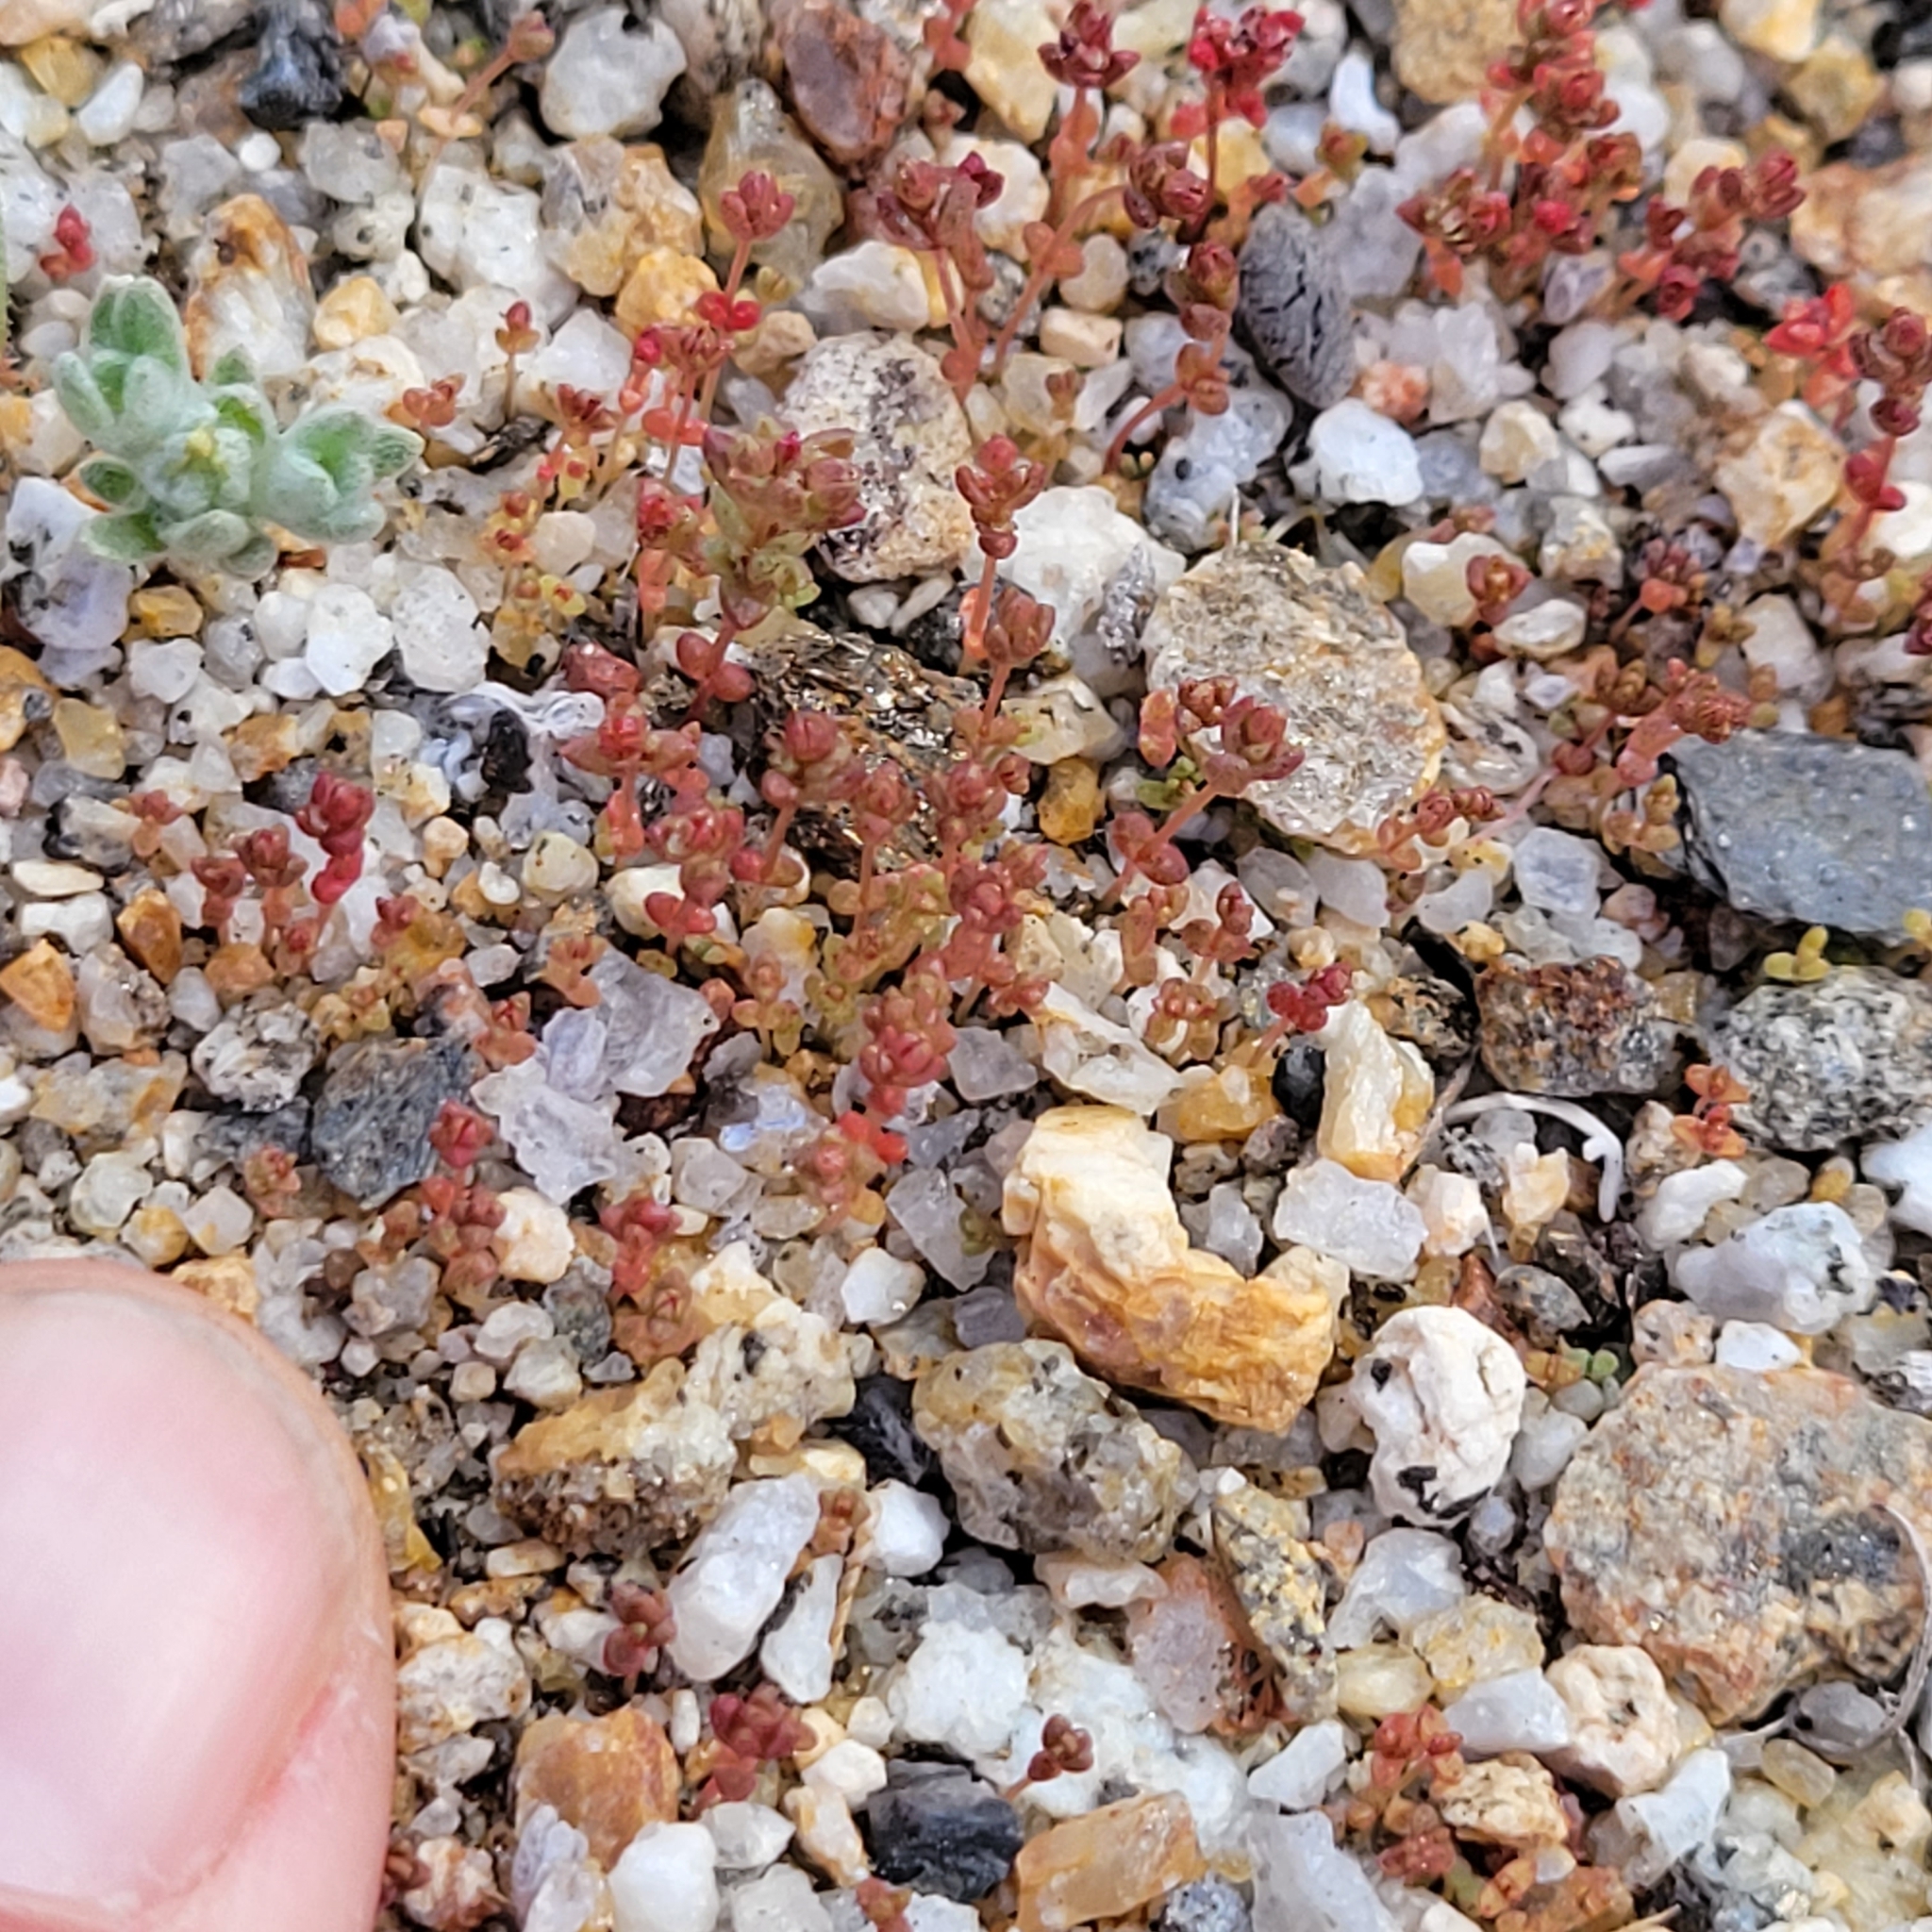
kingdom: Plantae
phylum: Tracheophyta
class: Magnoliopsida
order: Saxifragales
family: Crassulaceae
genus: Crassula
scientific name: Crassula connata
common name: Erect pygmyweed
